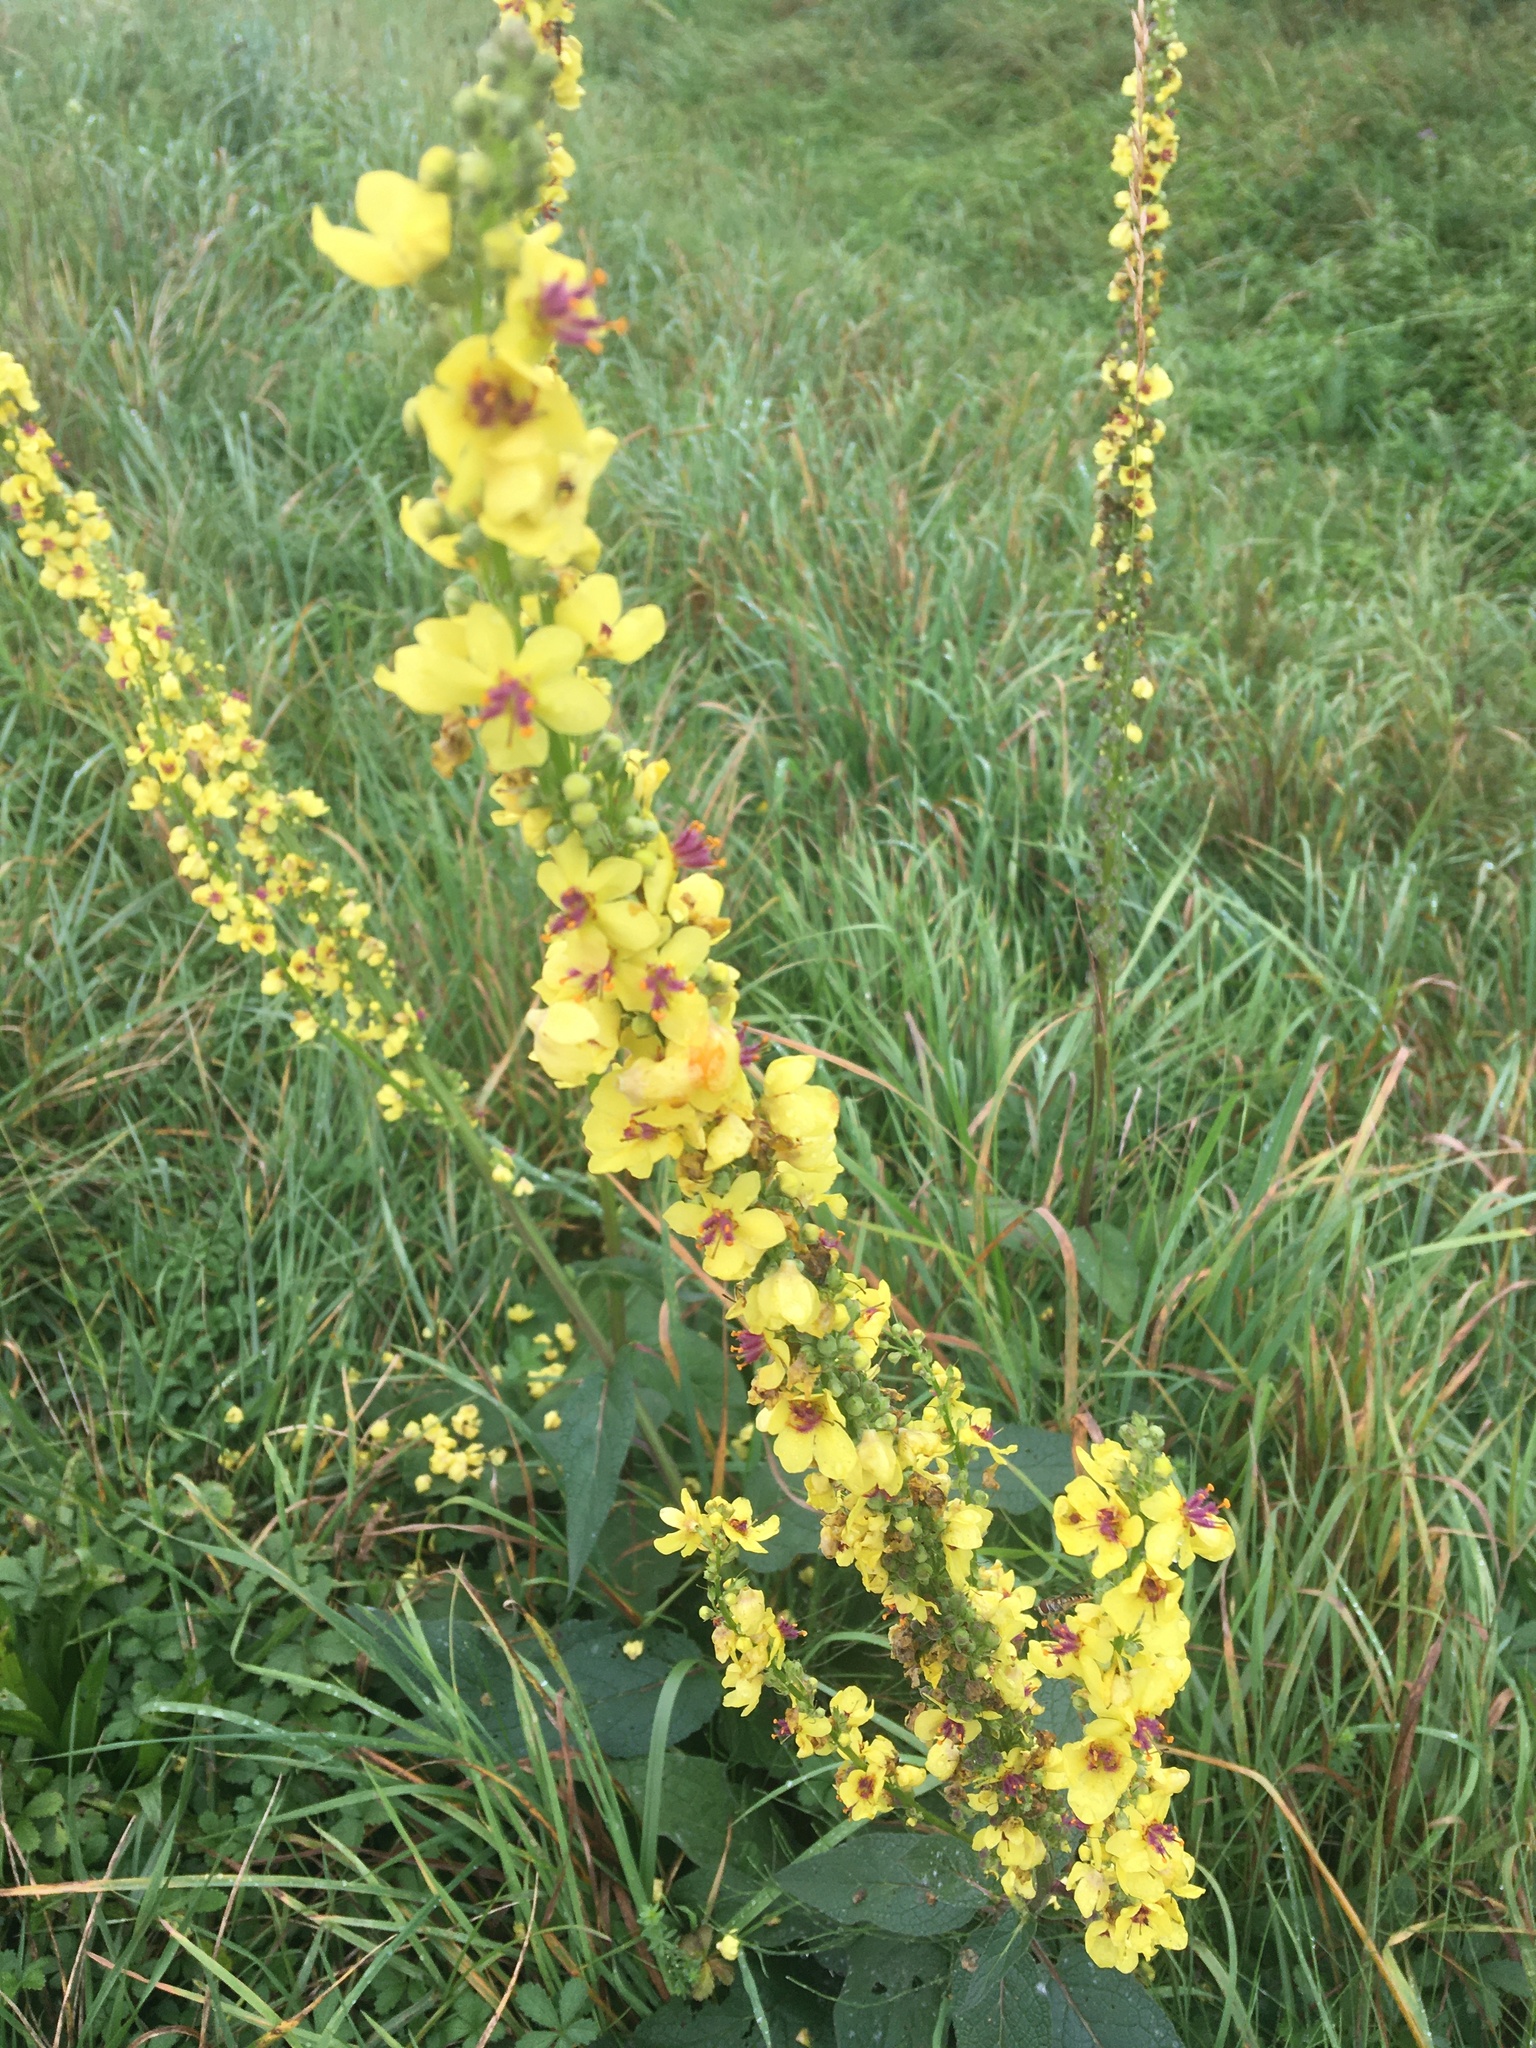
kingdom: Plantae
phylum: Tracheophyta
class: Magnoliopsida
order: Lamiales
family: Scrophulariaceae
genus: Verbascum
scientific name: Verbascum nigrum
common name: Dark mullein
